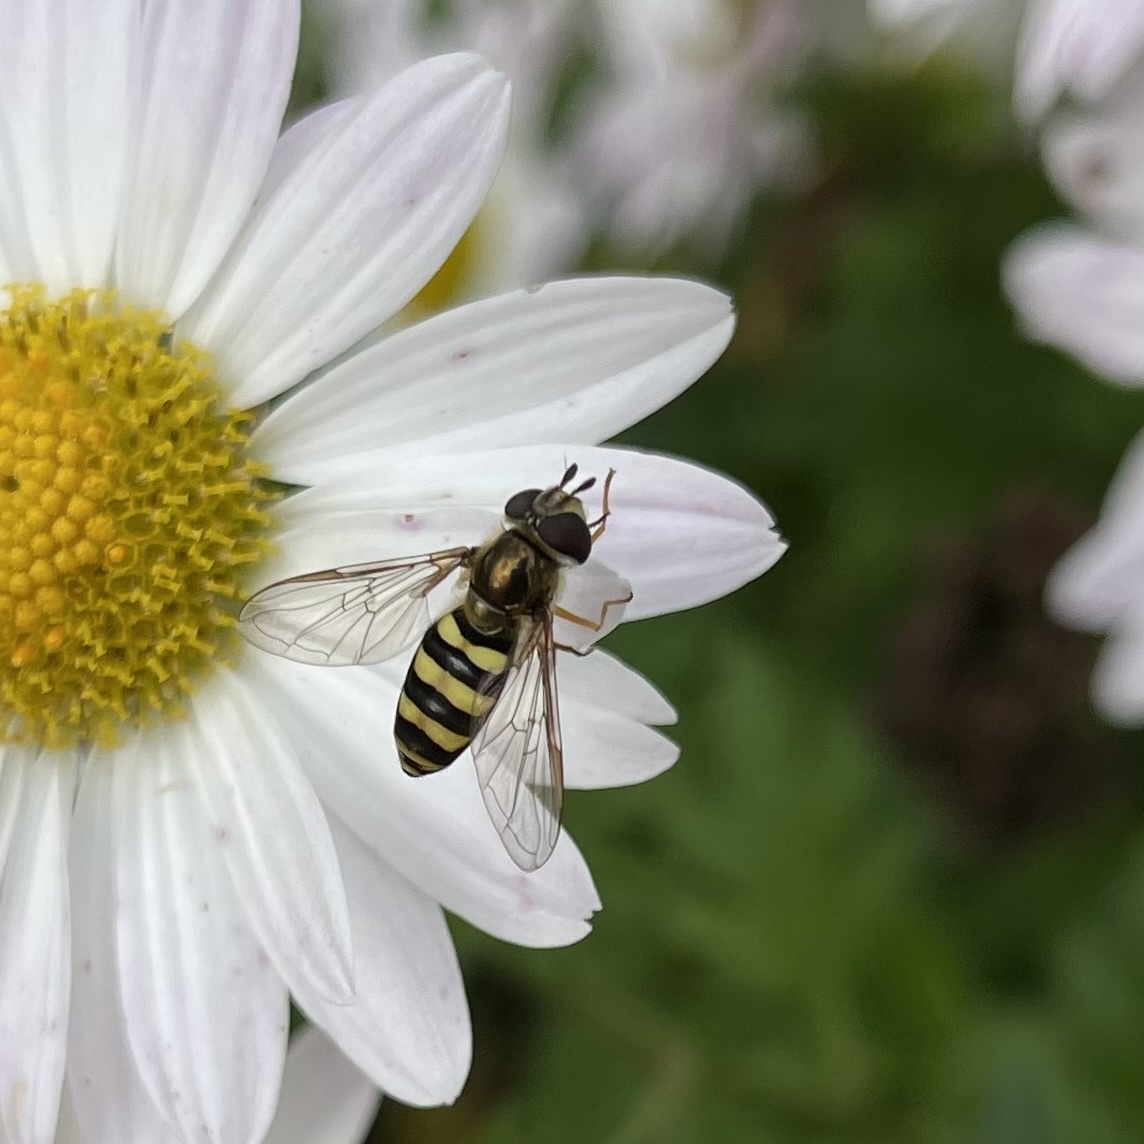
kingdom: Animalia
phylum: Arthropoda
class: Insecta
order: Diptera
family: Syrphidae
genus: Eupeodes
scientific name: Eupeodes
